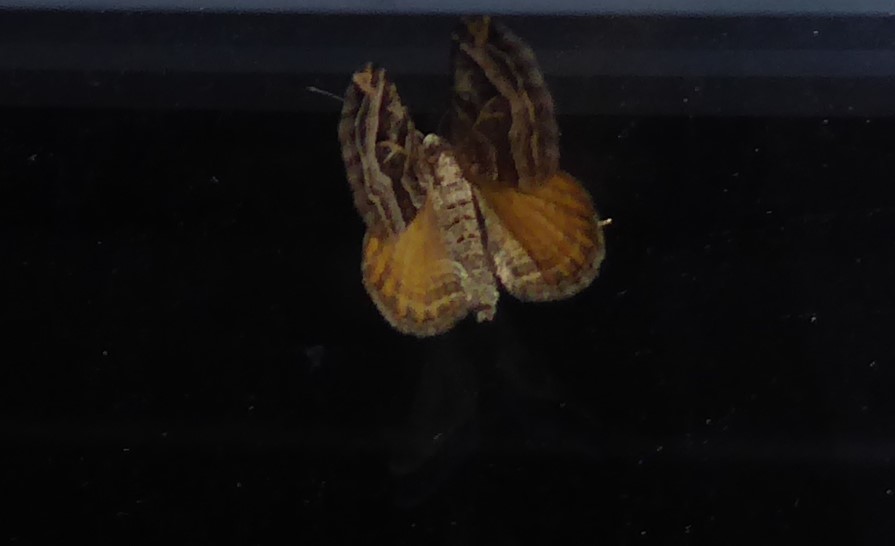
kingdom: Animalia
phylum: Arthropoda
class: Insecta
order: Lepidoptera
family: Geometridae
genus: Xanthorhoe
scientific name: Xanthorhoe semifissata
